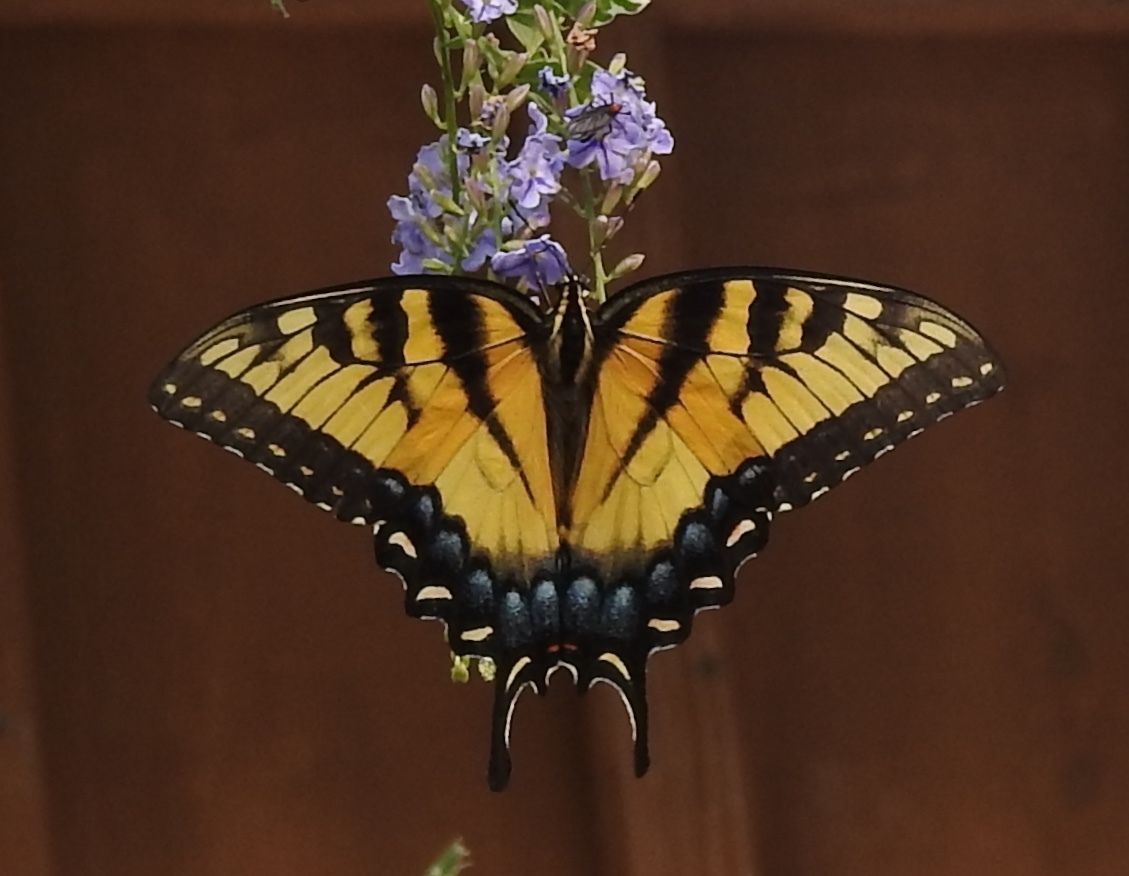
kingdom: Animalia
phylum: Arthropoda
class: Insecta
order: Lepidoptera
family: Papilionidae
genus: Papilio
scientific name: Papilio glaucus
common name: Tiger swallowtail
